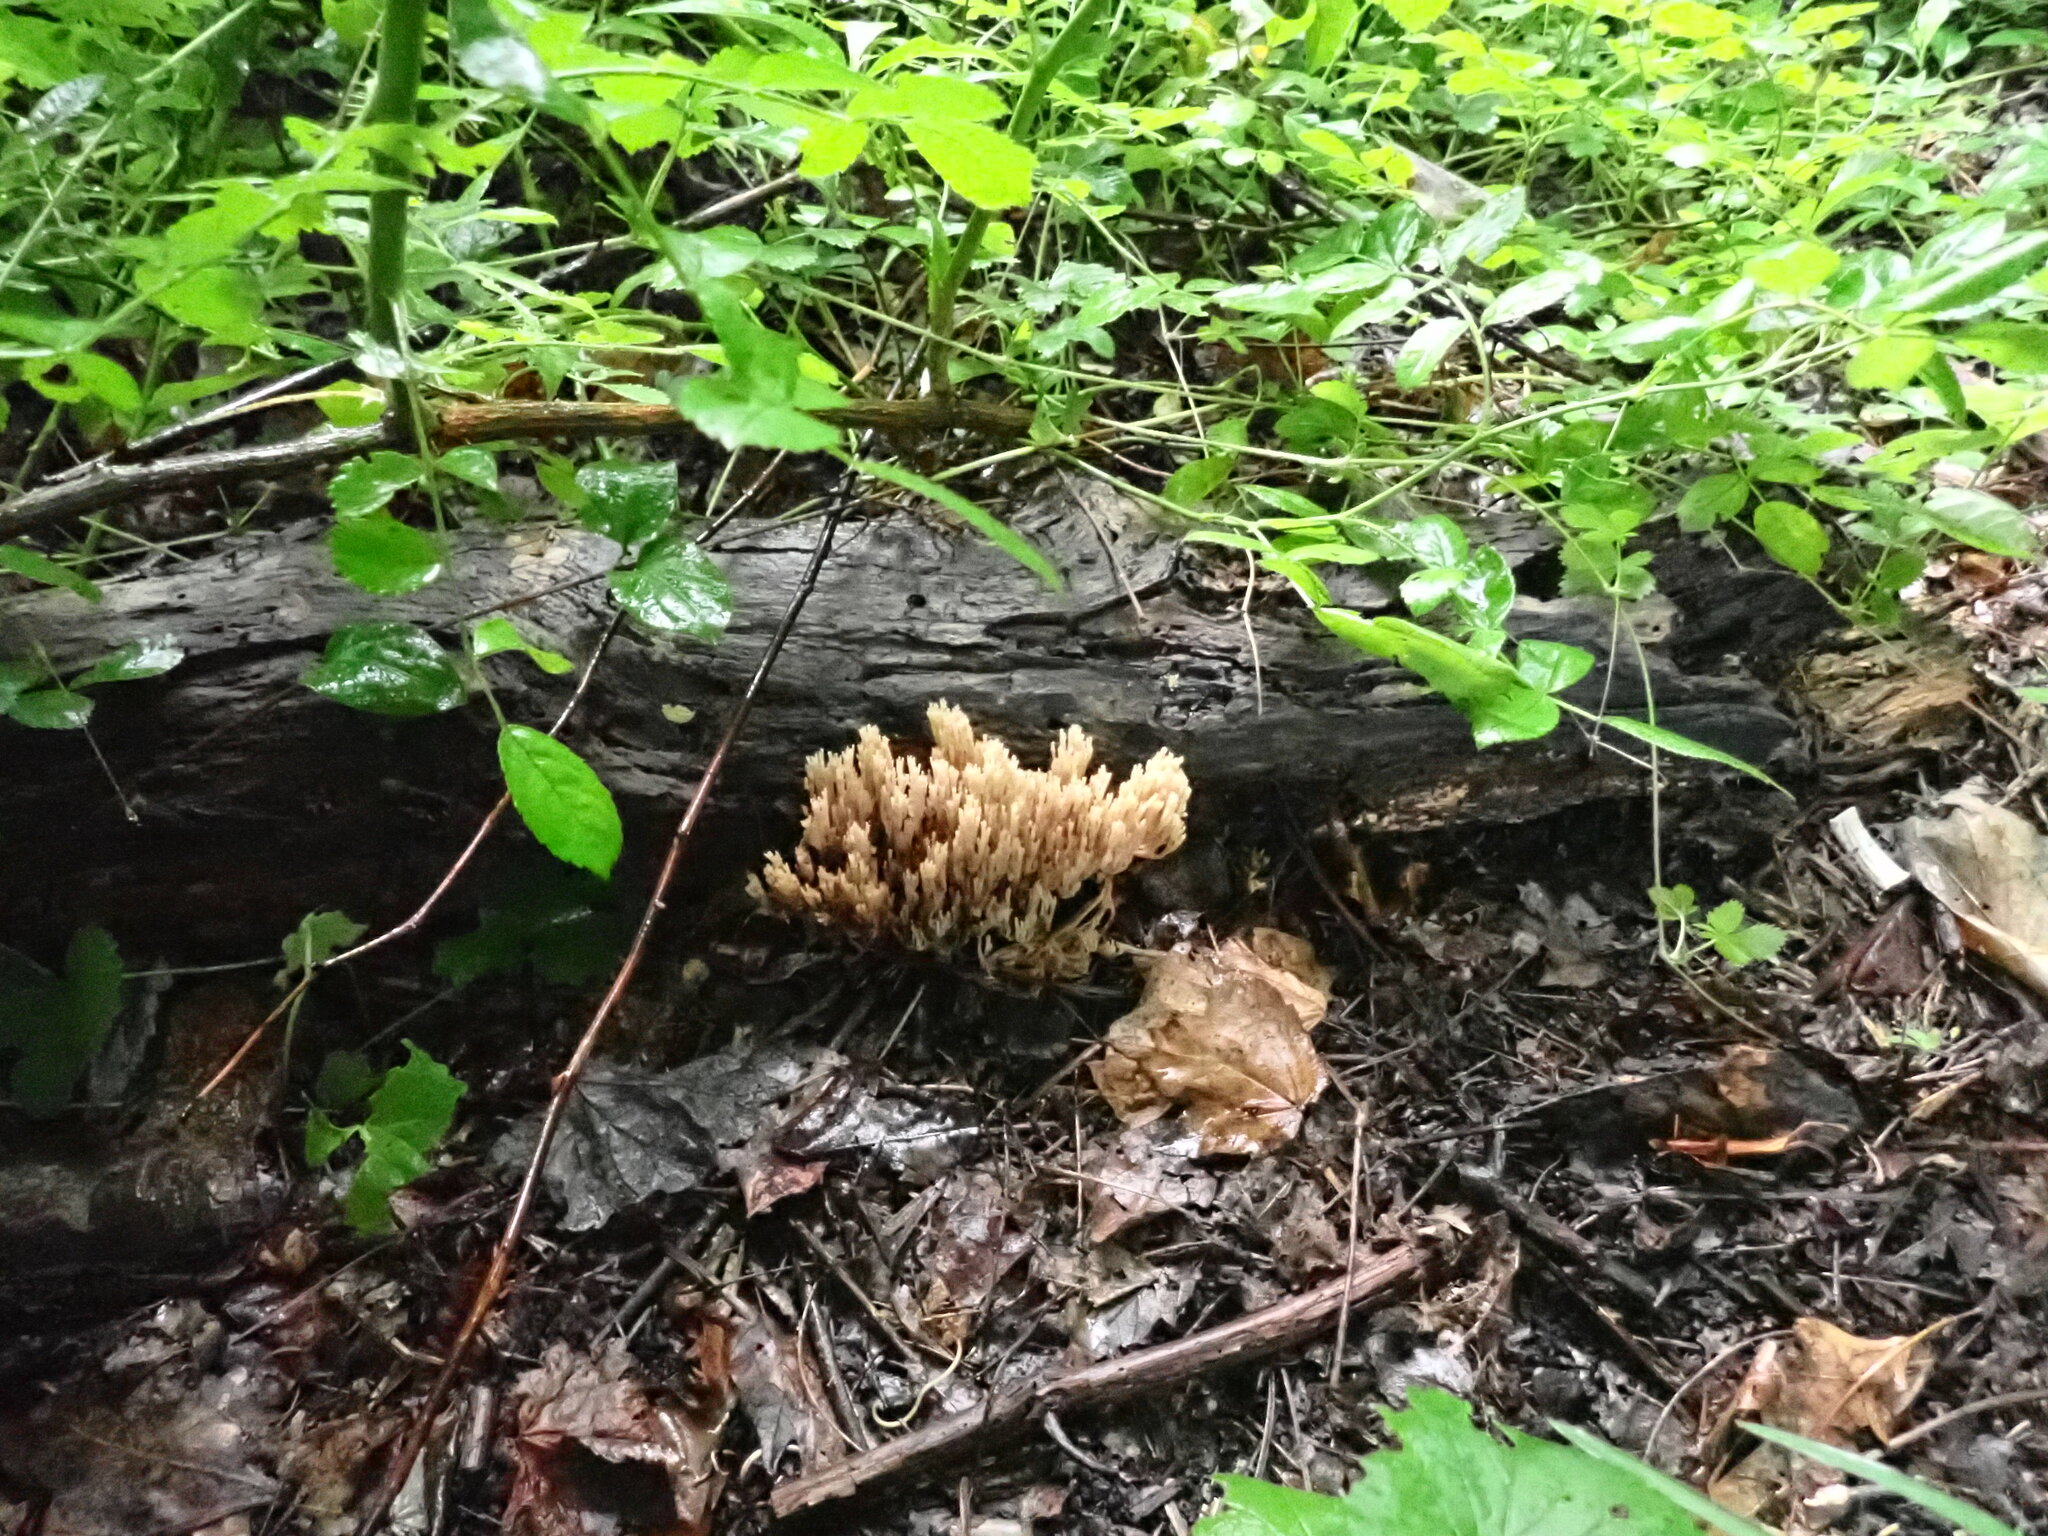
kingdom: Fungi
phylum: Basidiomycota
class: Agaricomycetes
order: Russulales
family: Auriscalpiaceae
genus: Artomyces
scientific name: Artomyces pyxidatus
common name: Crown-tipped coral fungus
